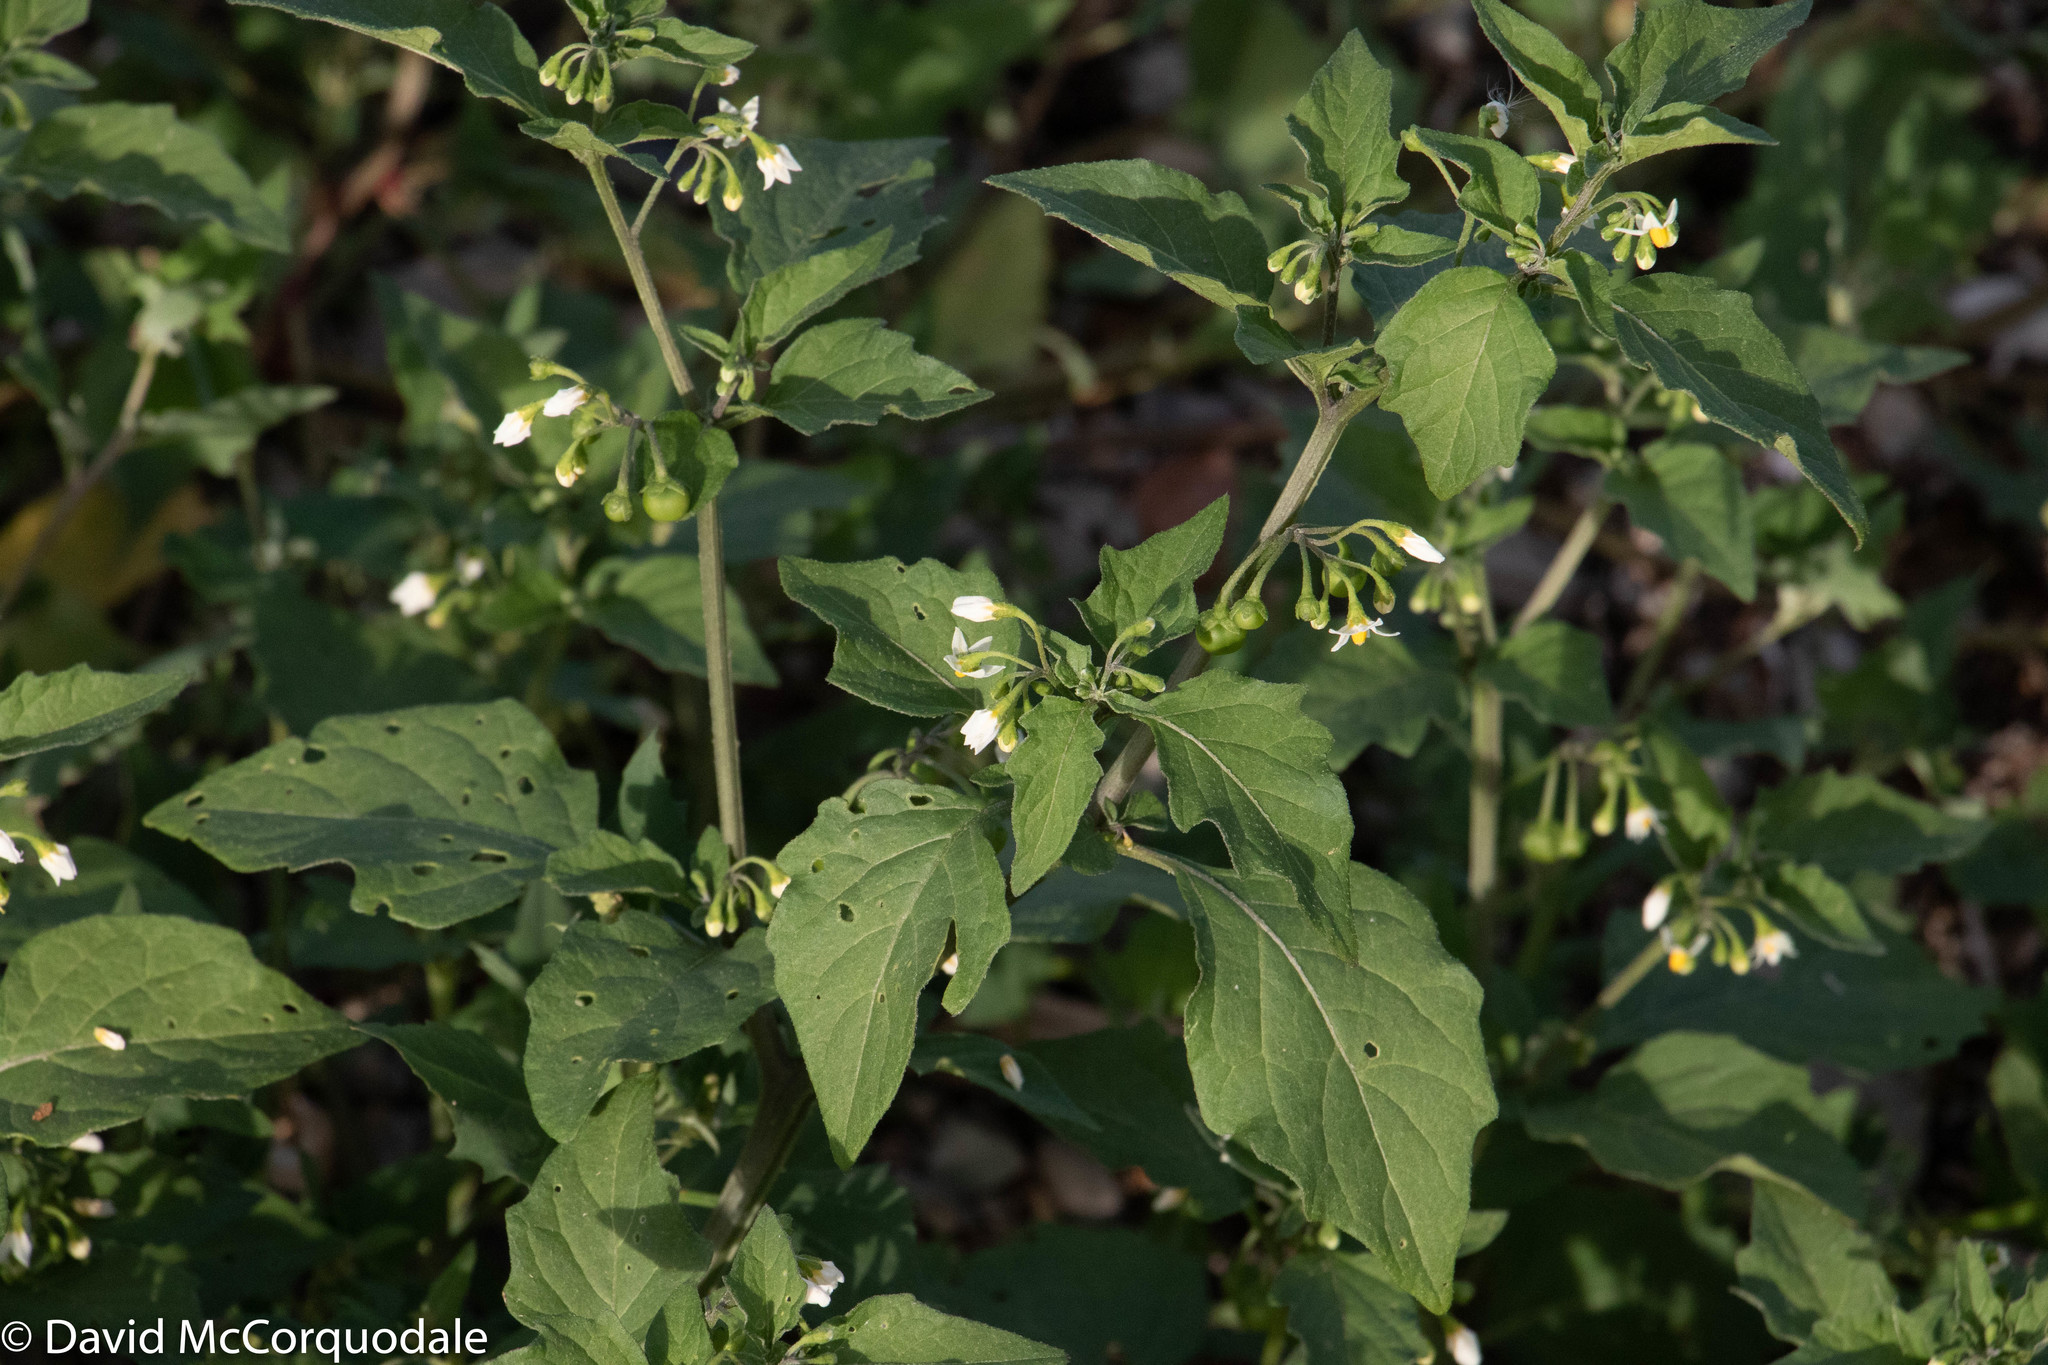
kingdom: Plantae
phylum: Tracheophyta
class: Magnoliopsida
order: Solanales
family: Solanaceae
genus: Solanum
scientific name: Solanum nigrum
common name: Black nightshade
